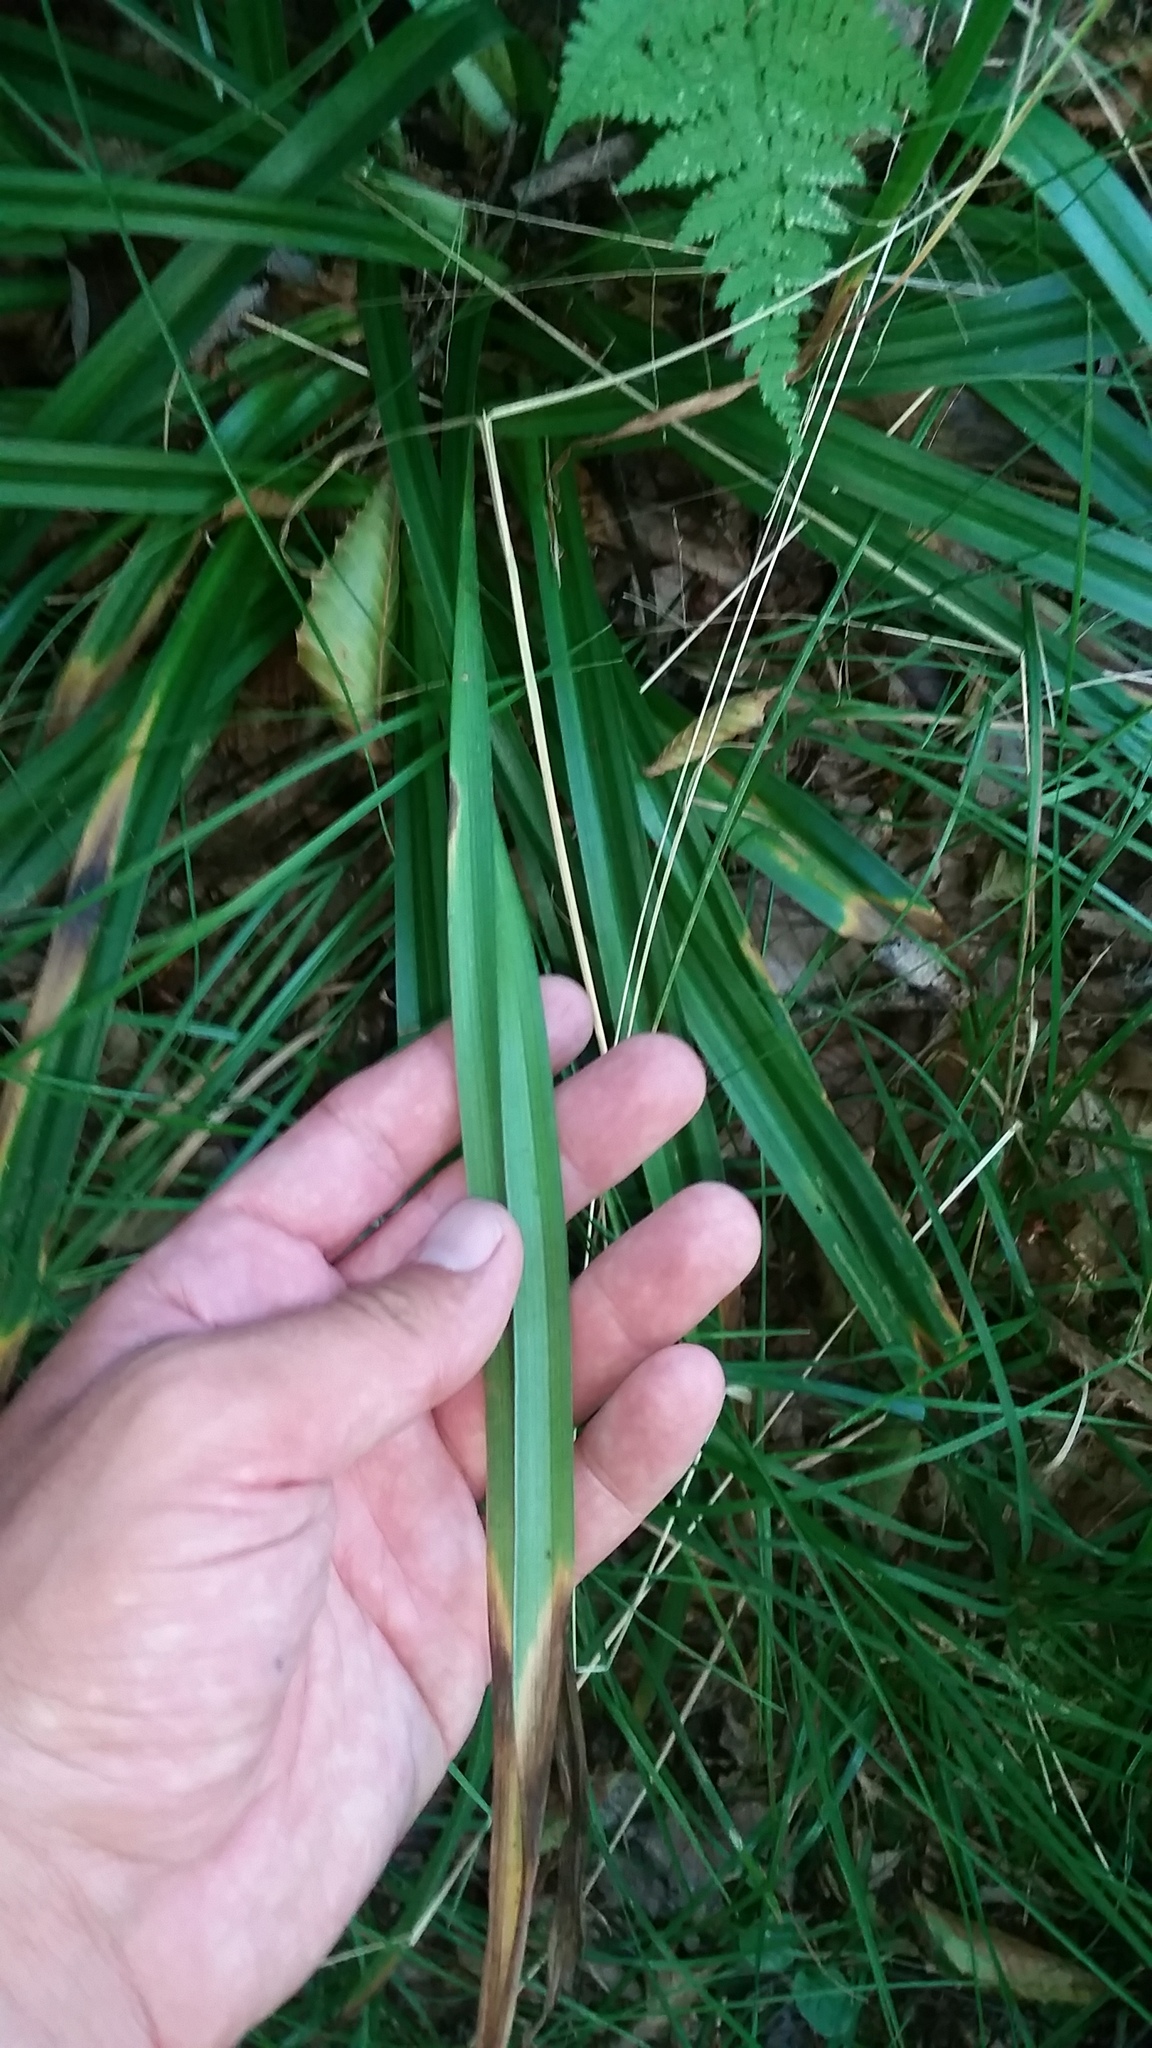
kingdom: Plantae
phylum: Tracheophyta
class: Liliopsida
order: Liliales
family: Melanthiaceae
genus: Amianthium
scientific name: Amianthium muscitoxicum
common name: Fly-poison
